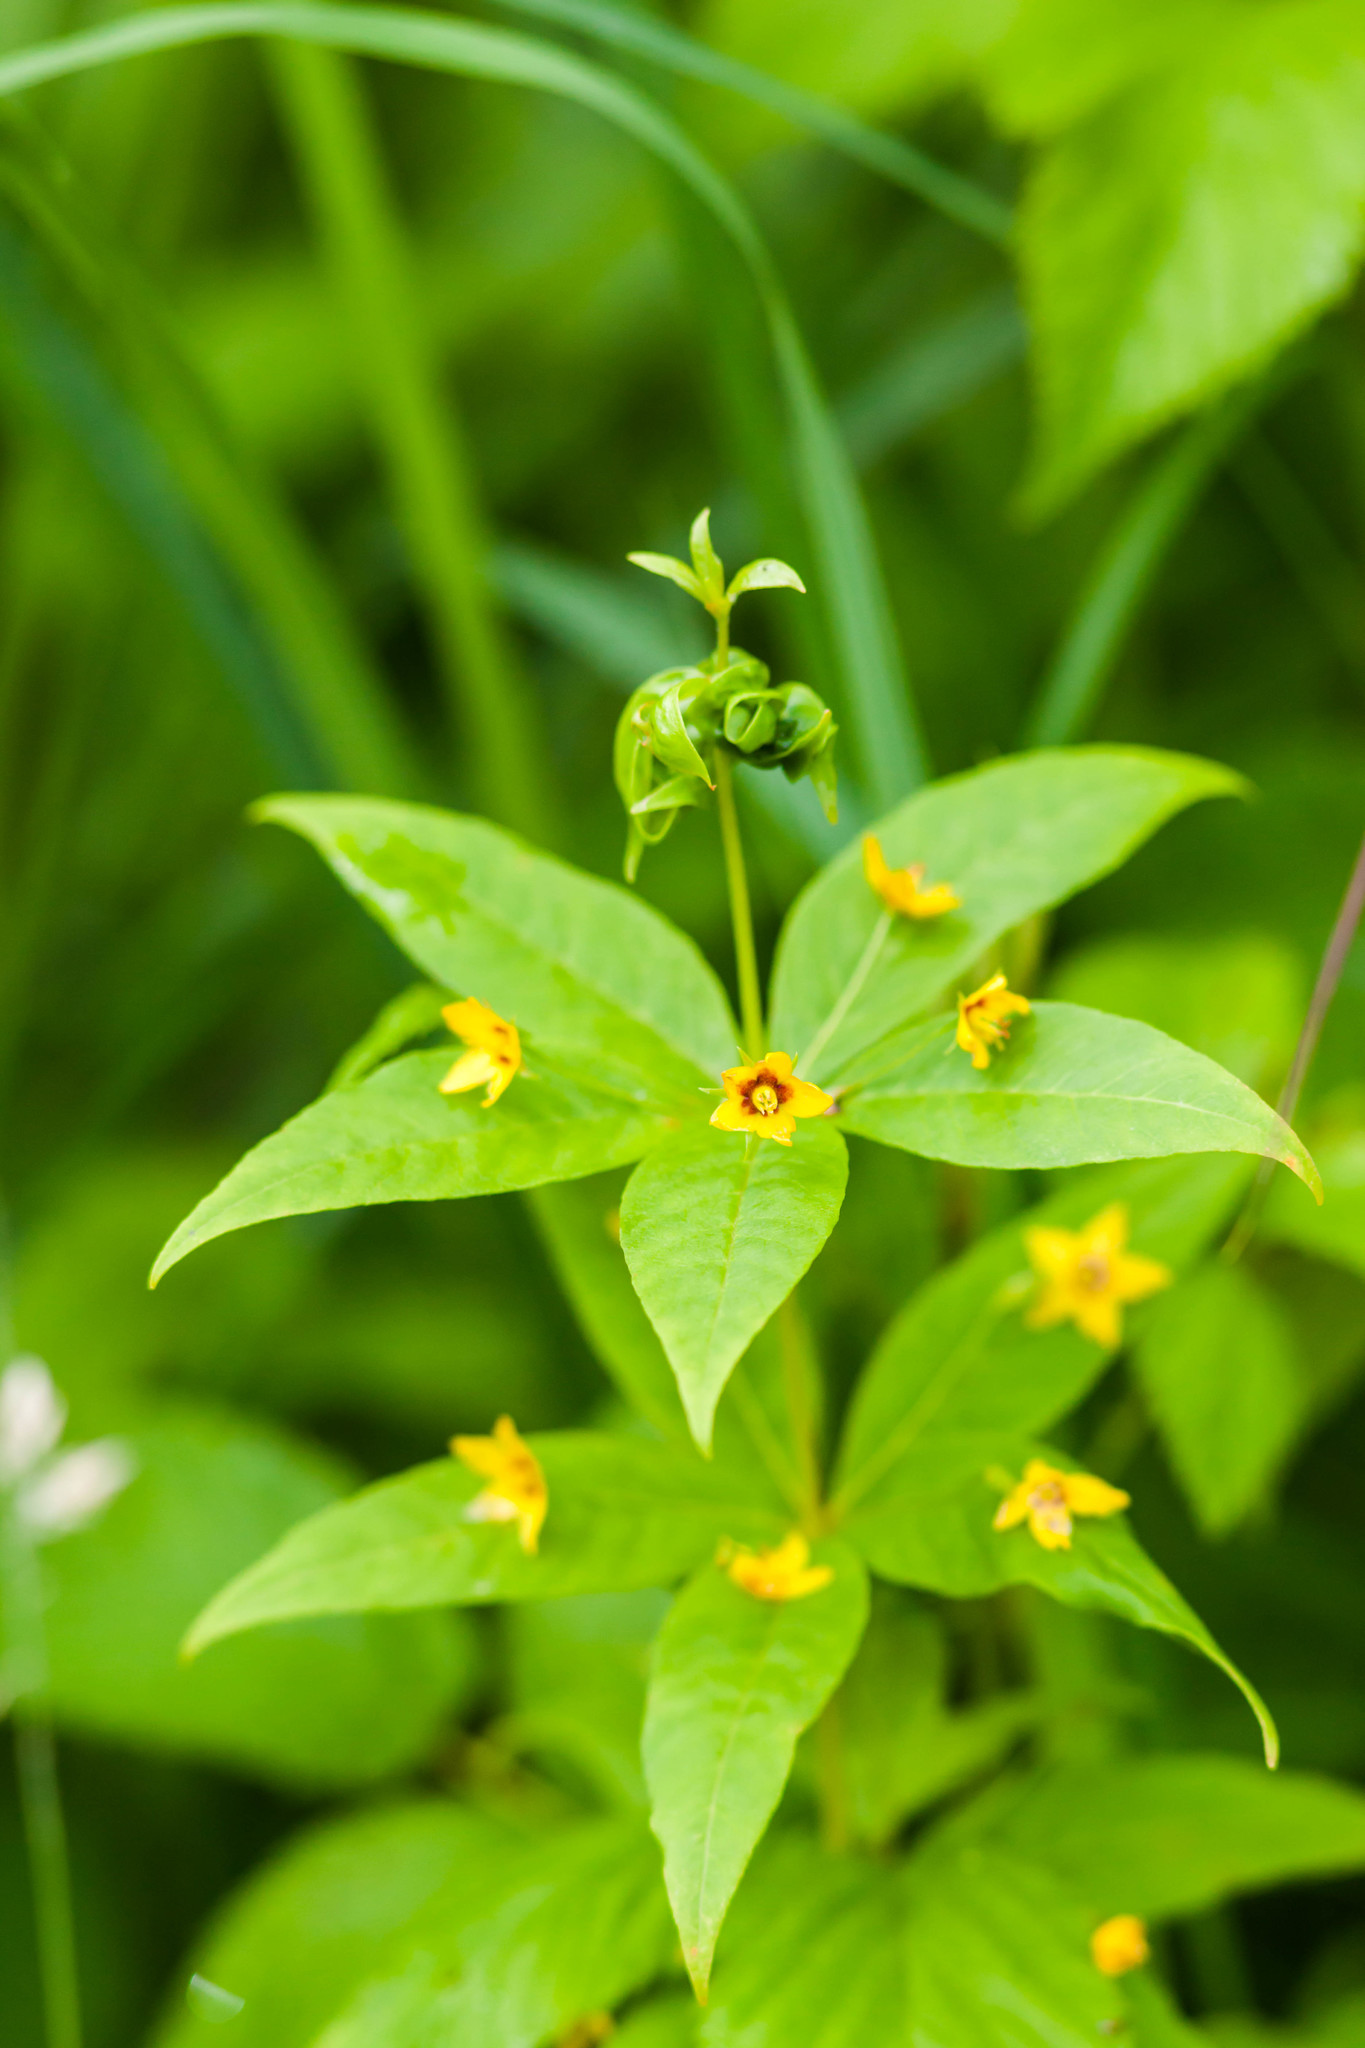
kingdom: Plantae
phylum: Tracheophyta
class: Magnoliopsida
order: Ericales
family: Primulaceae
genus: Lysimachia
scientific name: Lysimachia quadrifolia
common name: Whorled loosestrife
